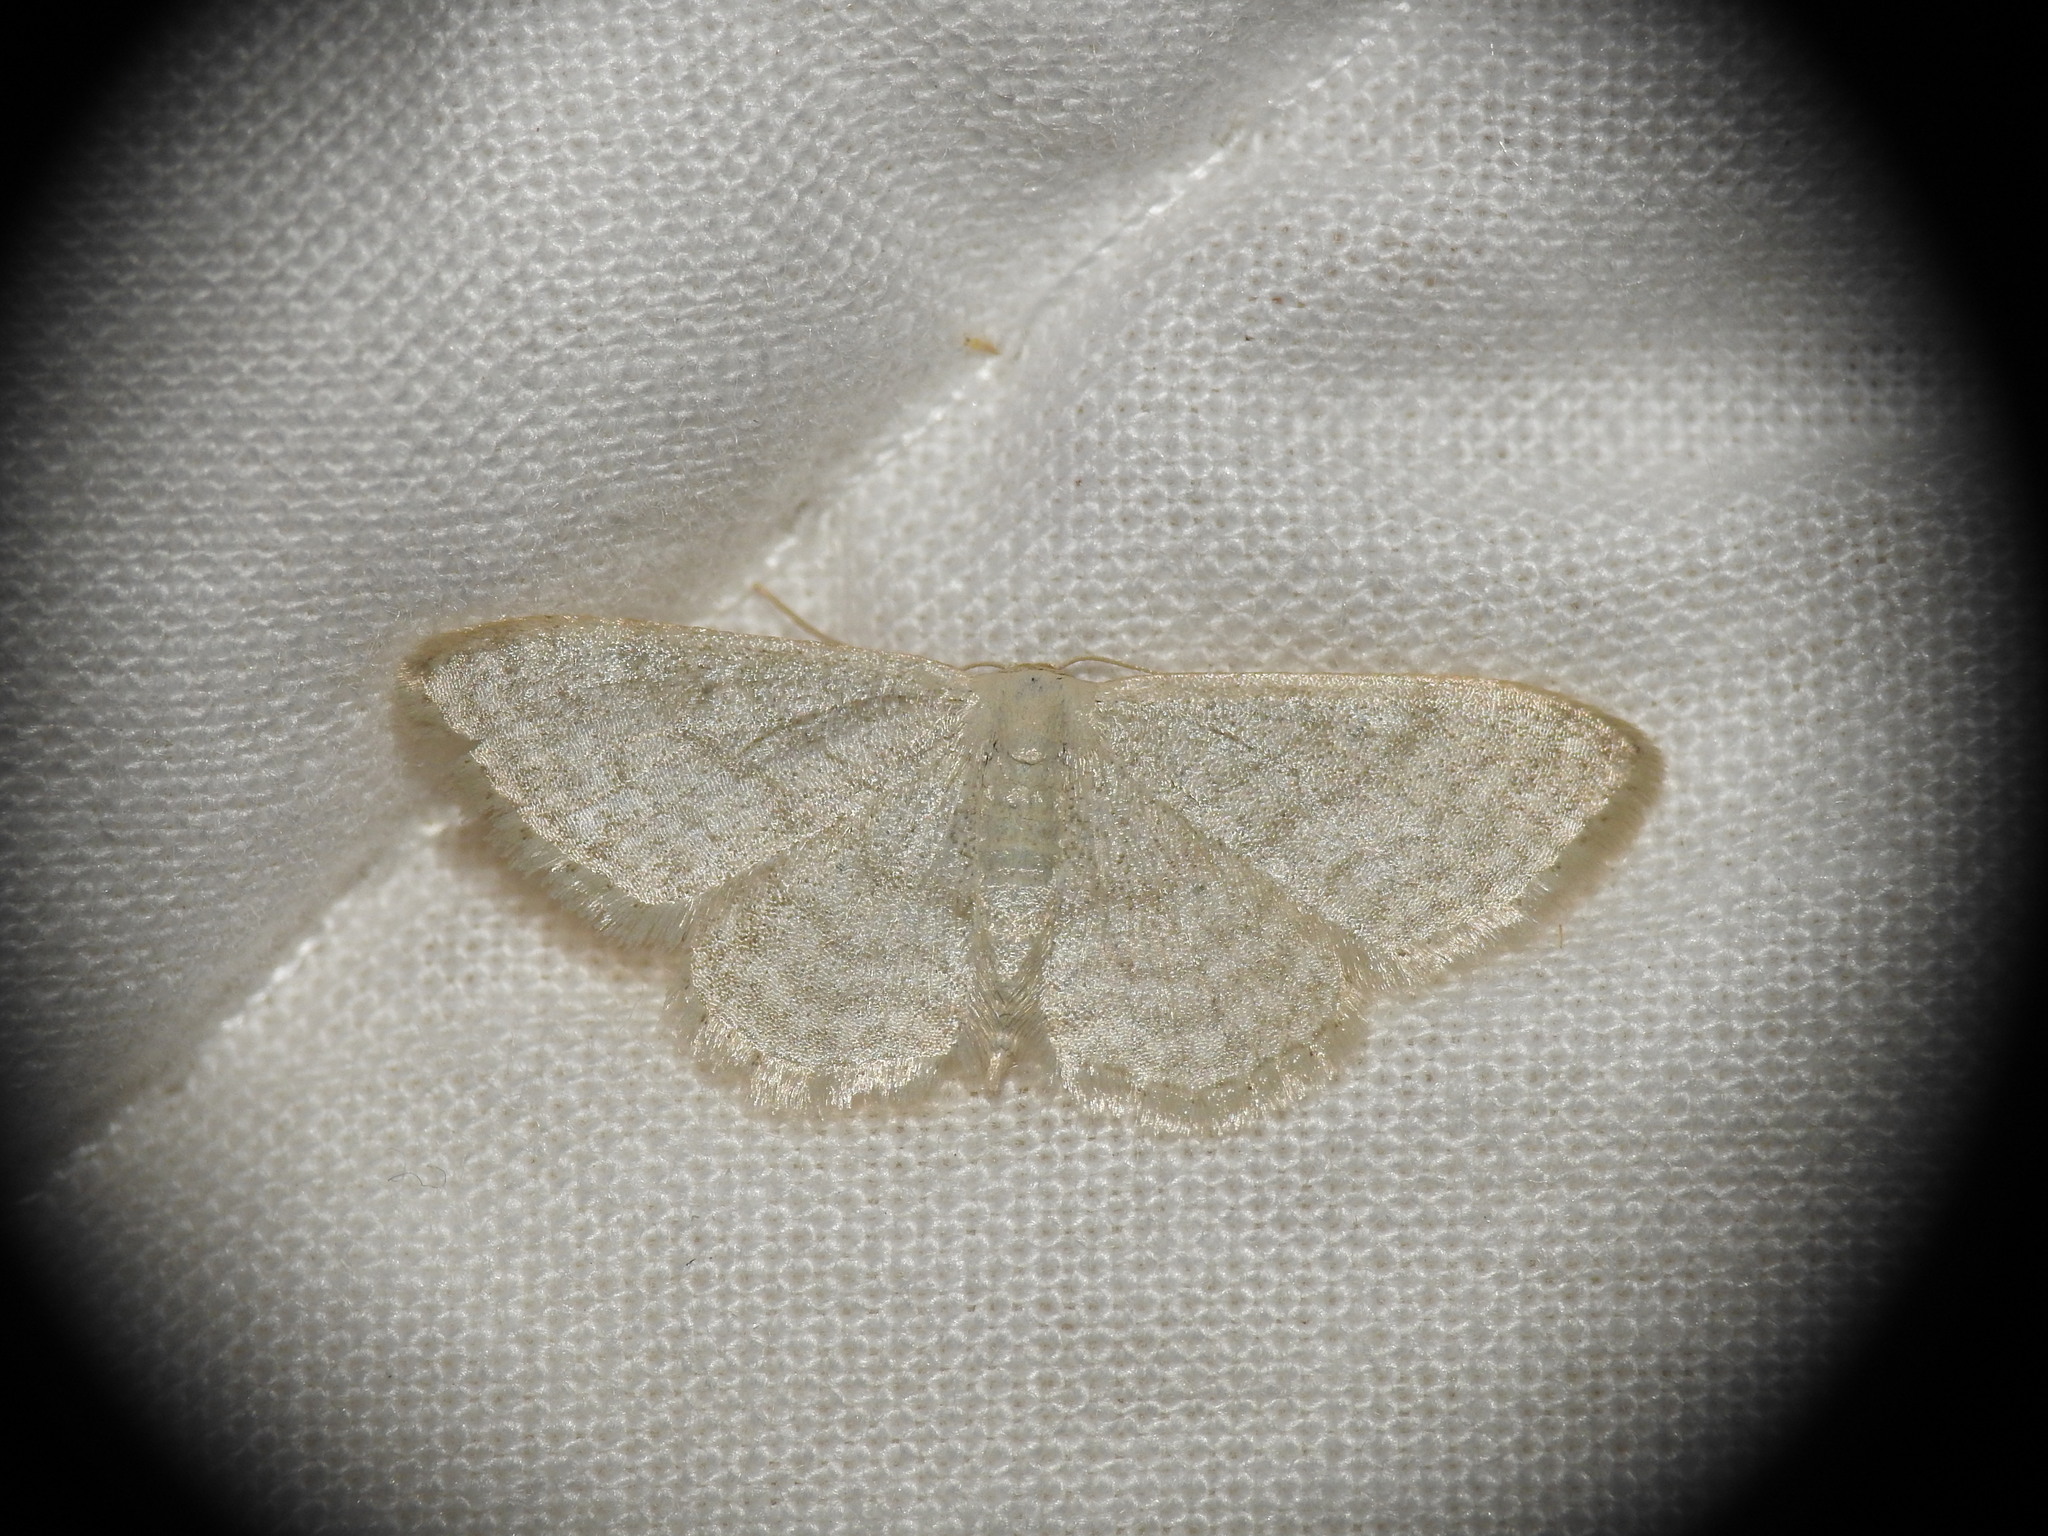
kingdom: Animalia
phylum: Arthropoda
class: Insecta
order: Lepidoptera
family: Geometridae
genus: Idaea
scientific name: Idaea subsericeata
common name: Satin wave
